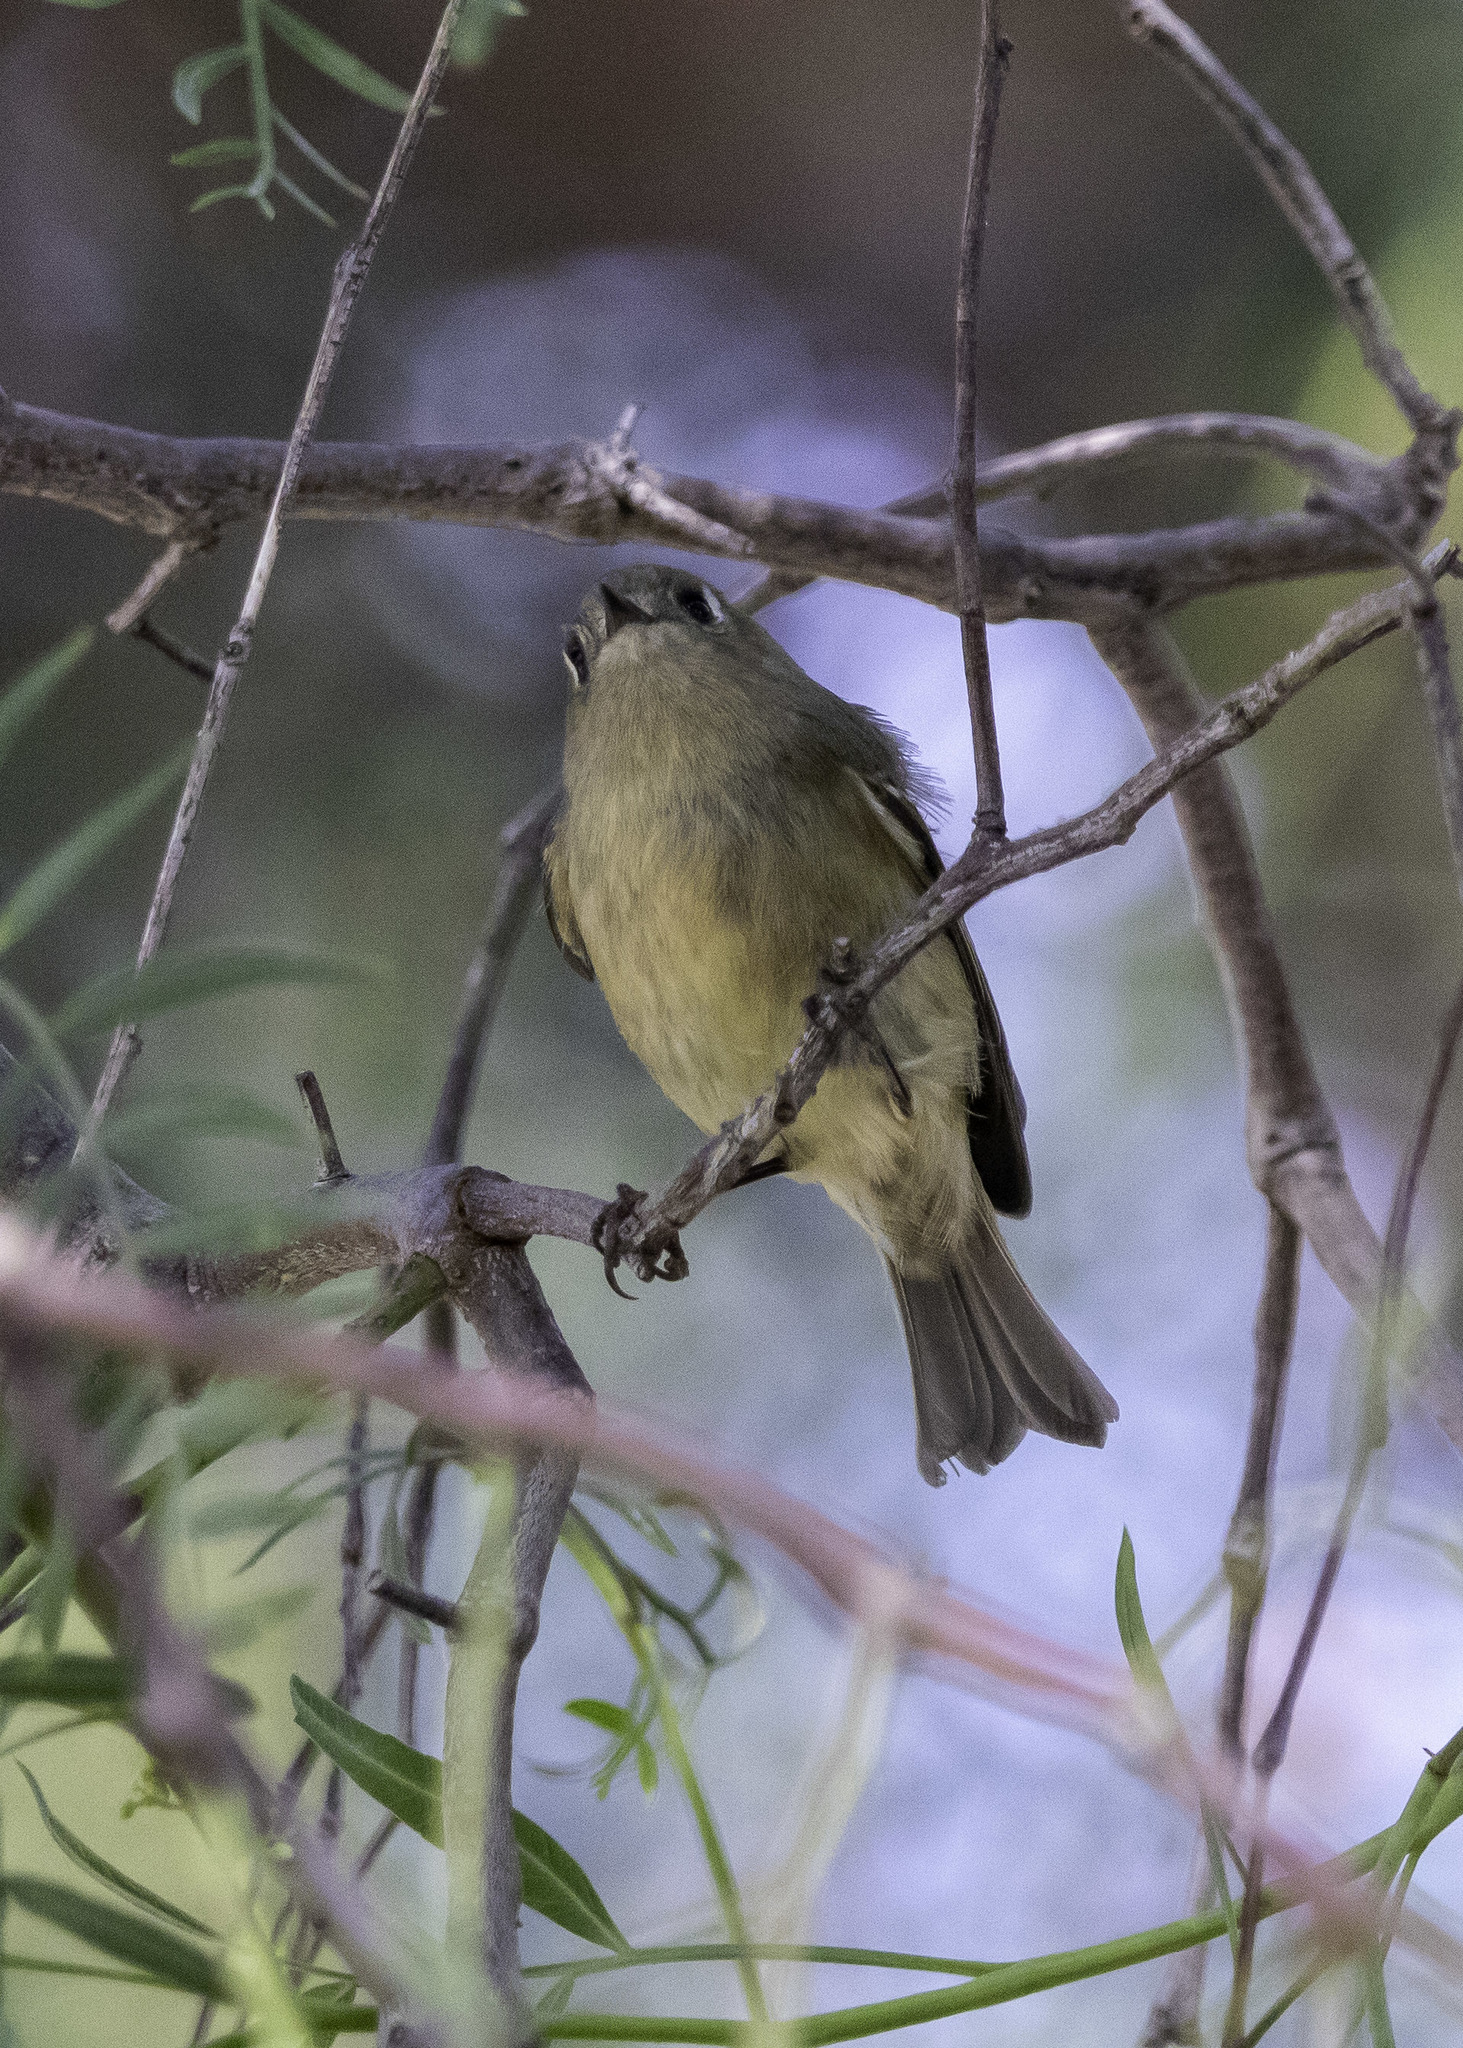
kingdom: Animalia
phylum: Chordata
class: Aves
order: Passeriformes
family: Regulidae
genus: Regulus
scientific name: Regulus calendula
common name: Ruby-crowned kinglet
